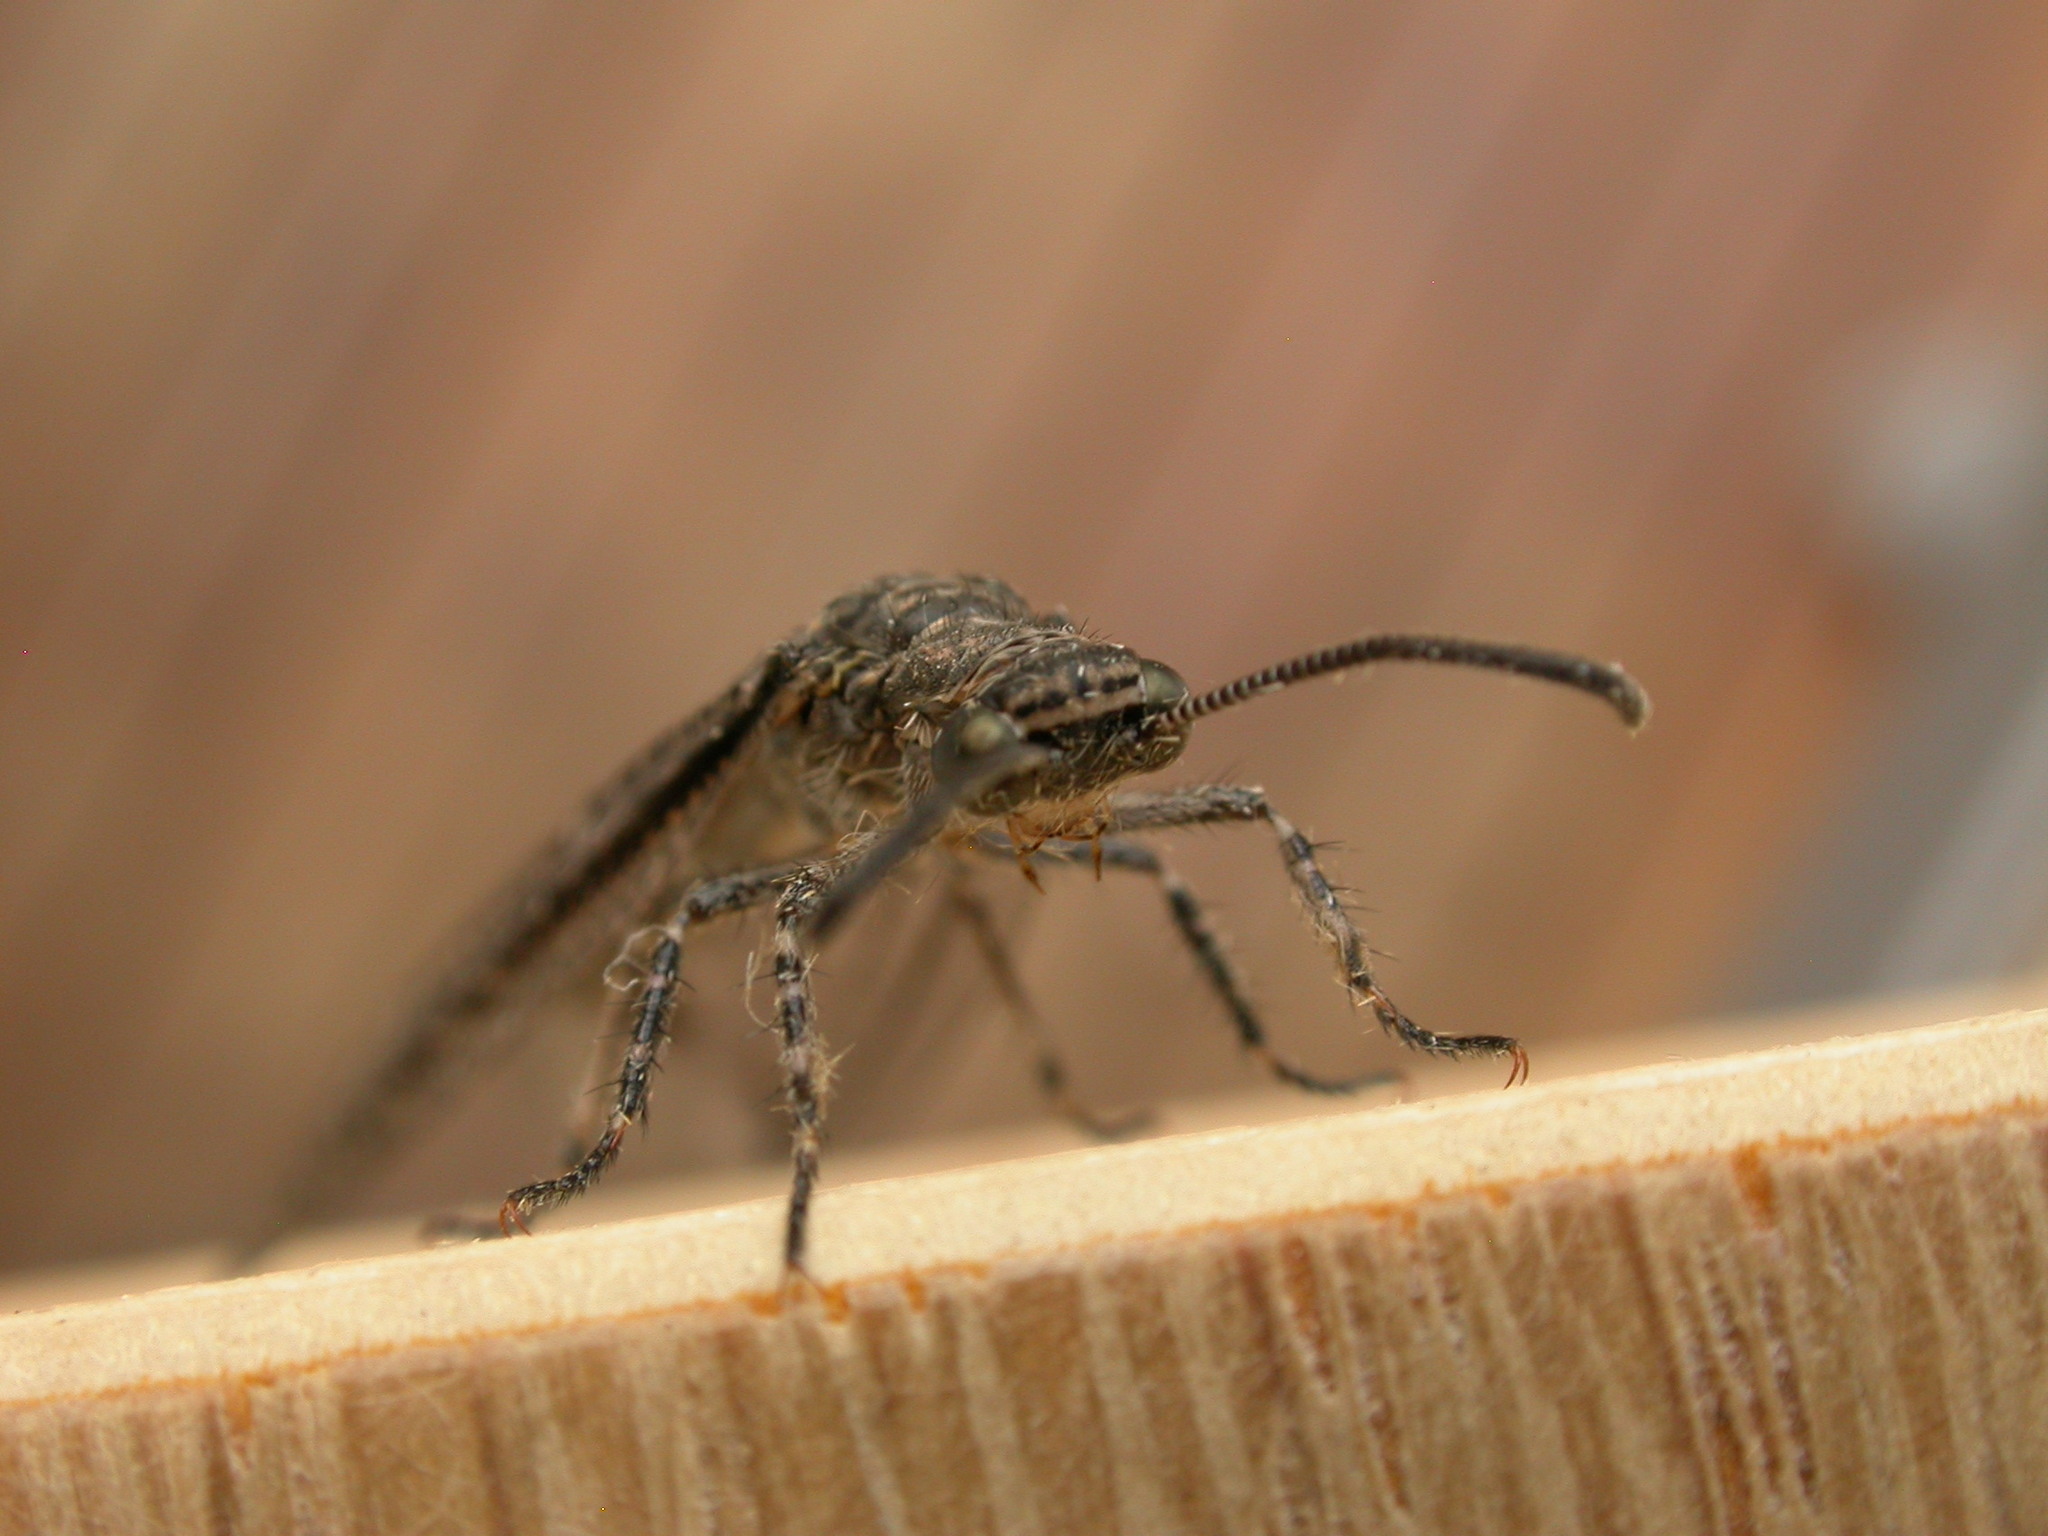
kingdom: Animalia
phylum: Arthropoda
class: Insecta
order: Neuroptera
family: Myrmeleontidae
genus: Austrogymnocnemia
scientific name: Austrogymnocnemia
